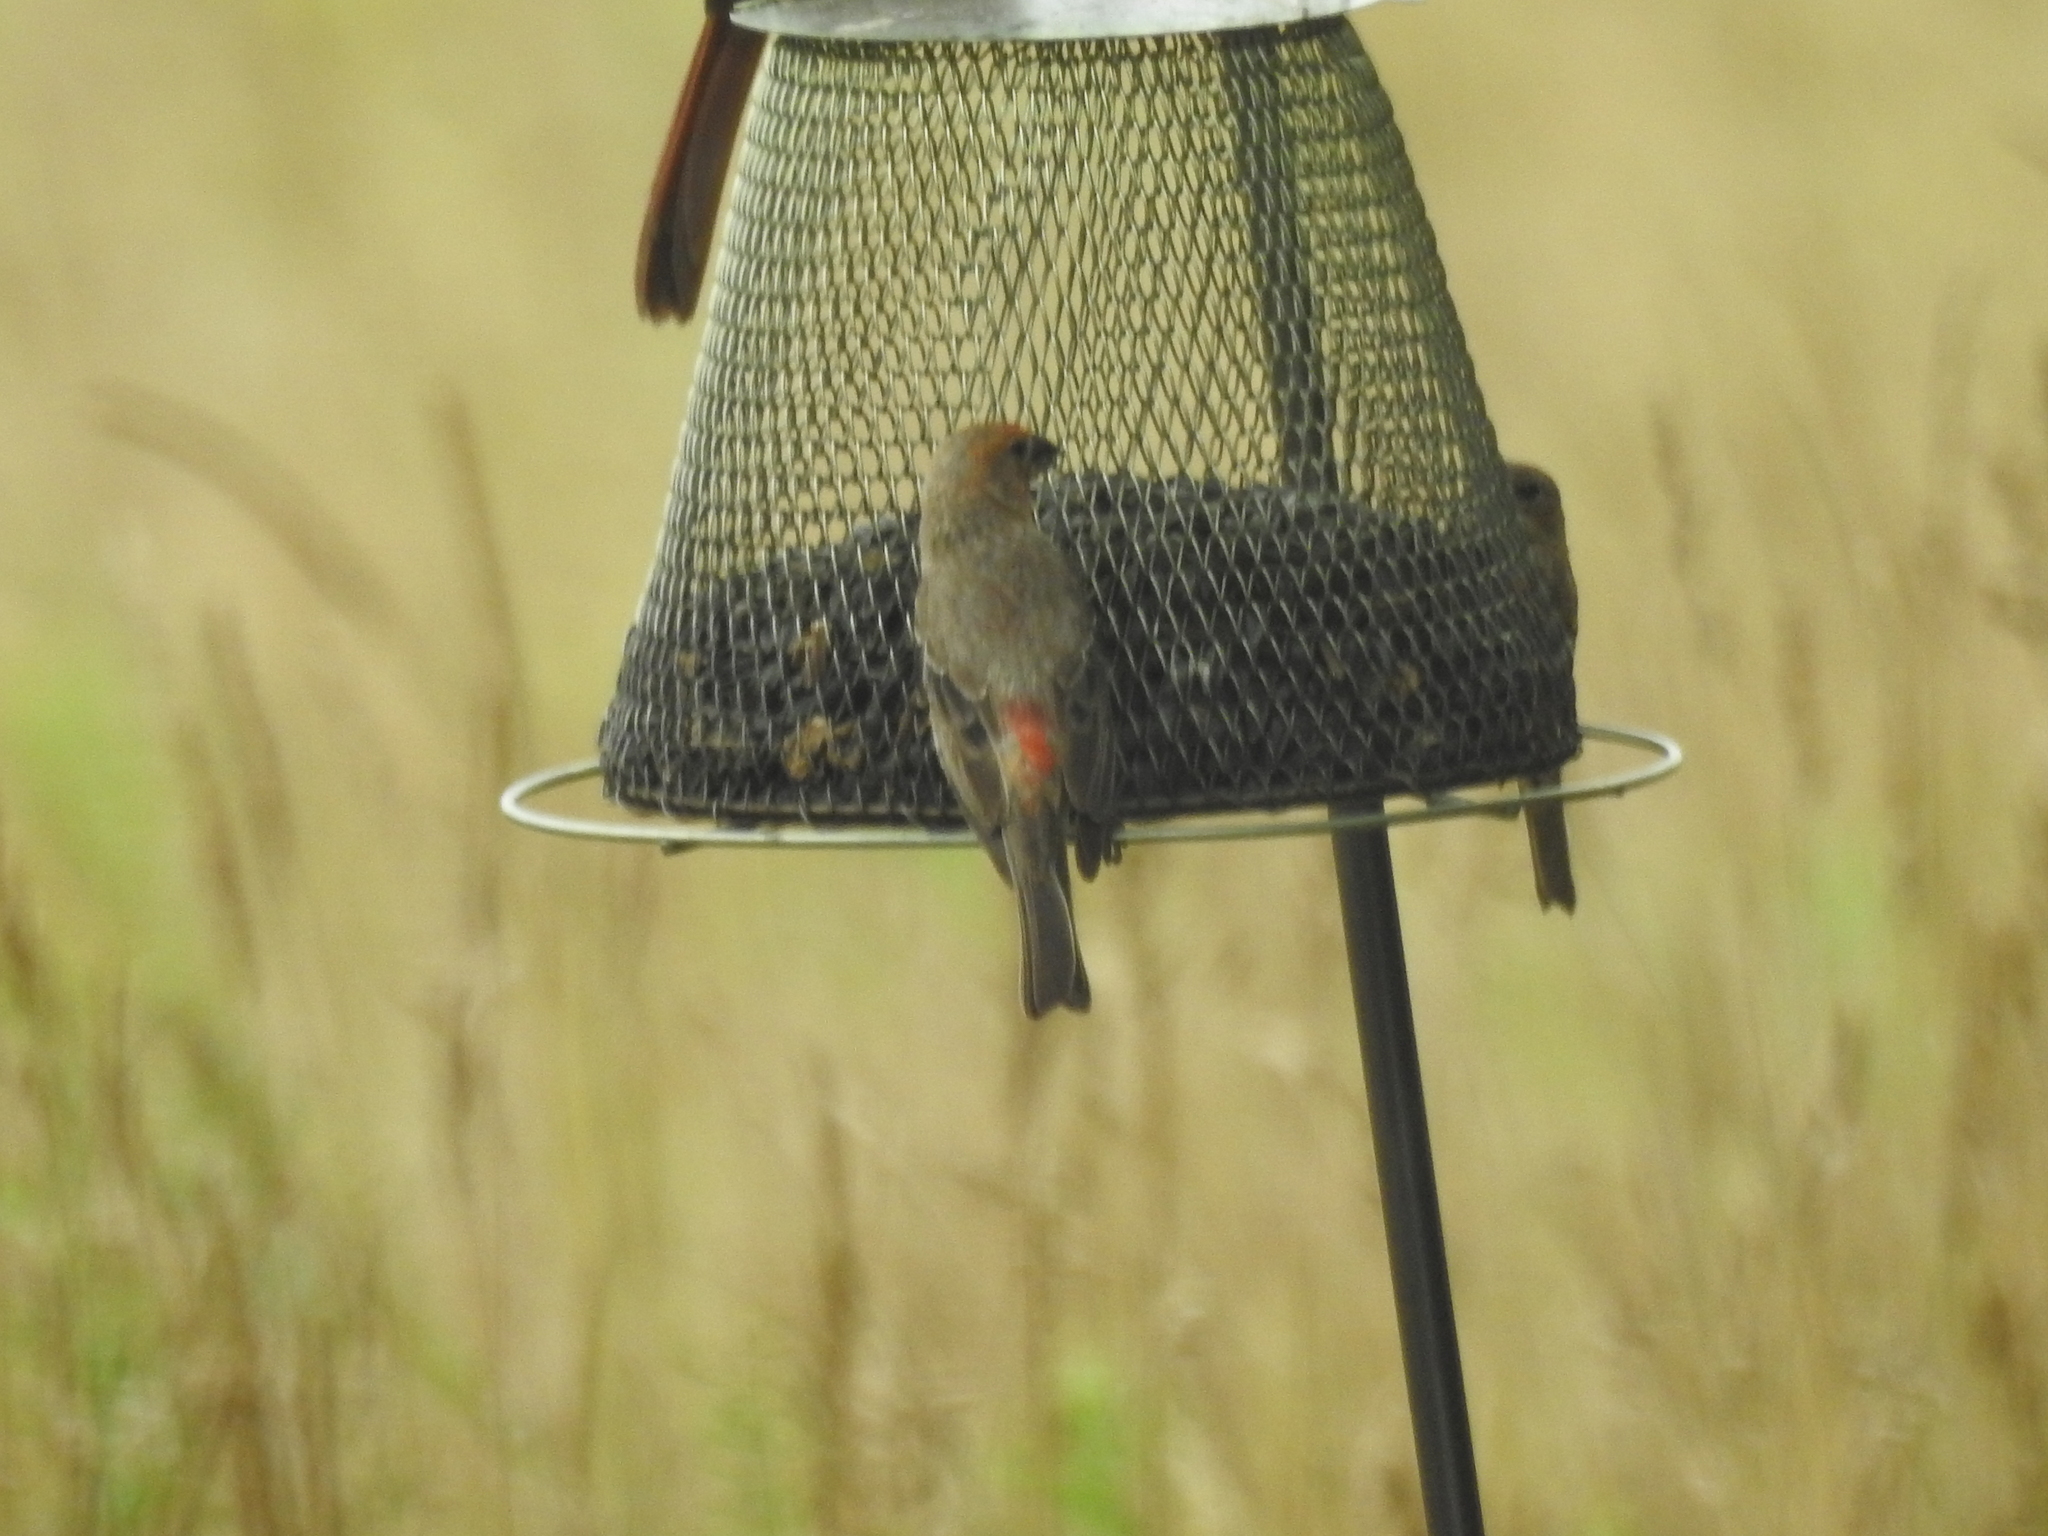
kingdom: Animalia
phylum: Chordata
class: Aves
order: Passeriformes
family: Fringillidae
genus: Haemorhous
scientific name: Haemorhous mexicanus
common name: House finch
